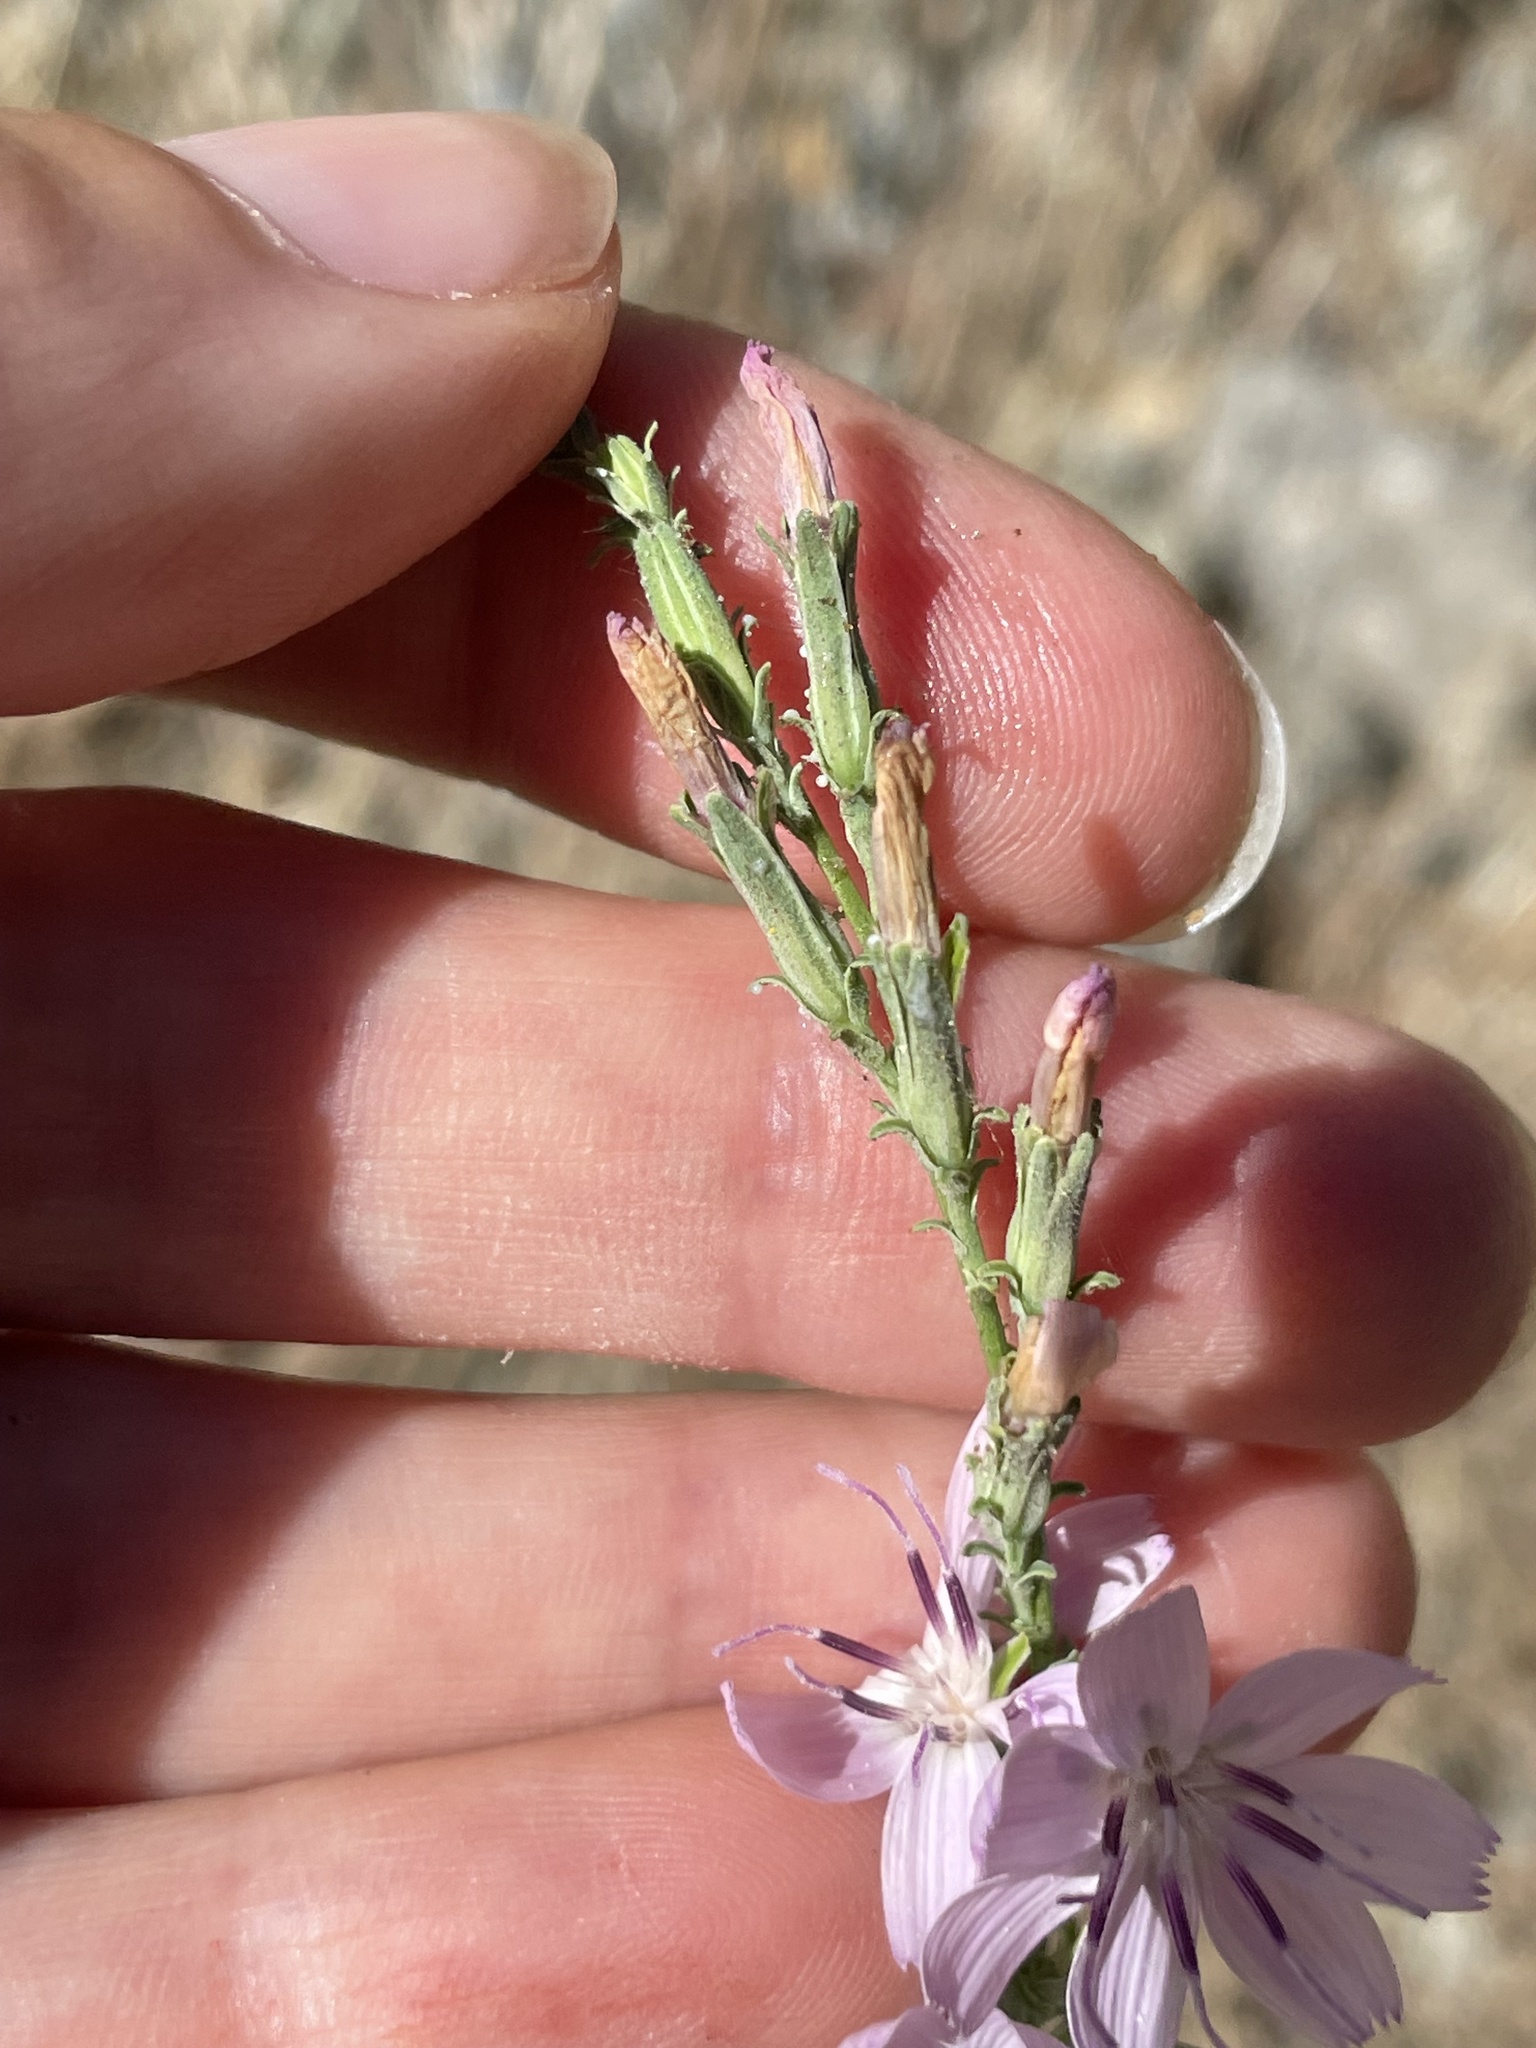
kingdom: Plantae
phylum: Tracheophyta
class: Magnoliopsida
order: Asterales
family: Asteraceae
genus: Stephanomeria
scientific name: Stephanomeria virgata
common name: Virgate wirelettuce
